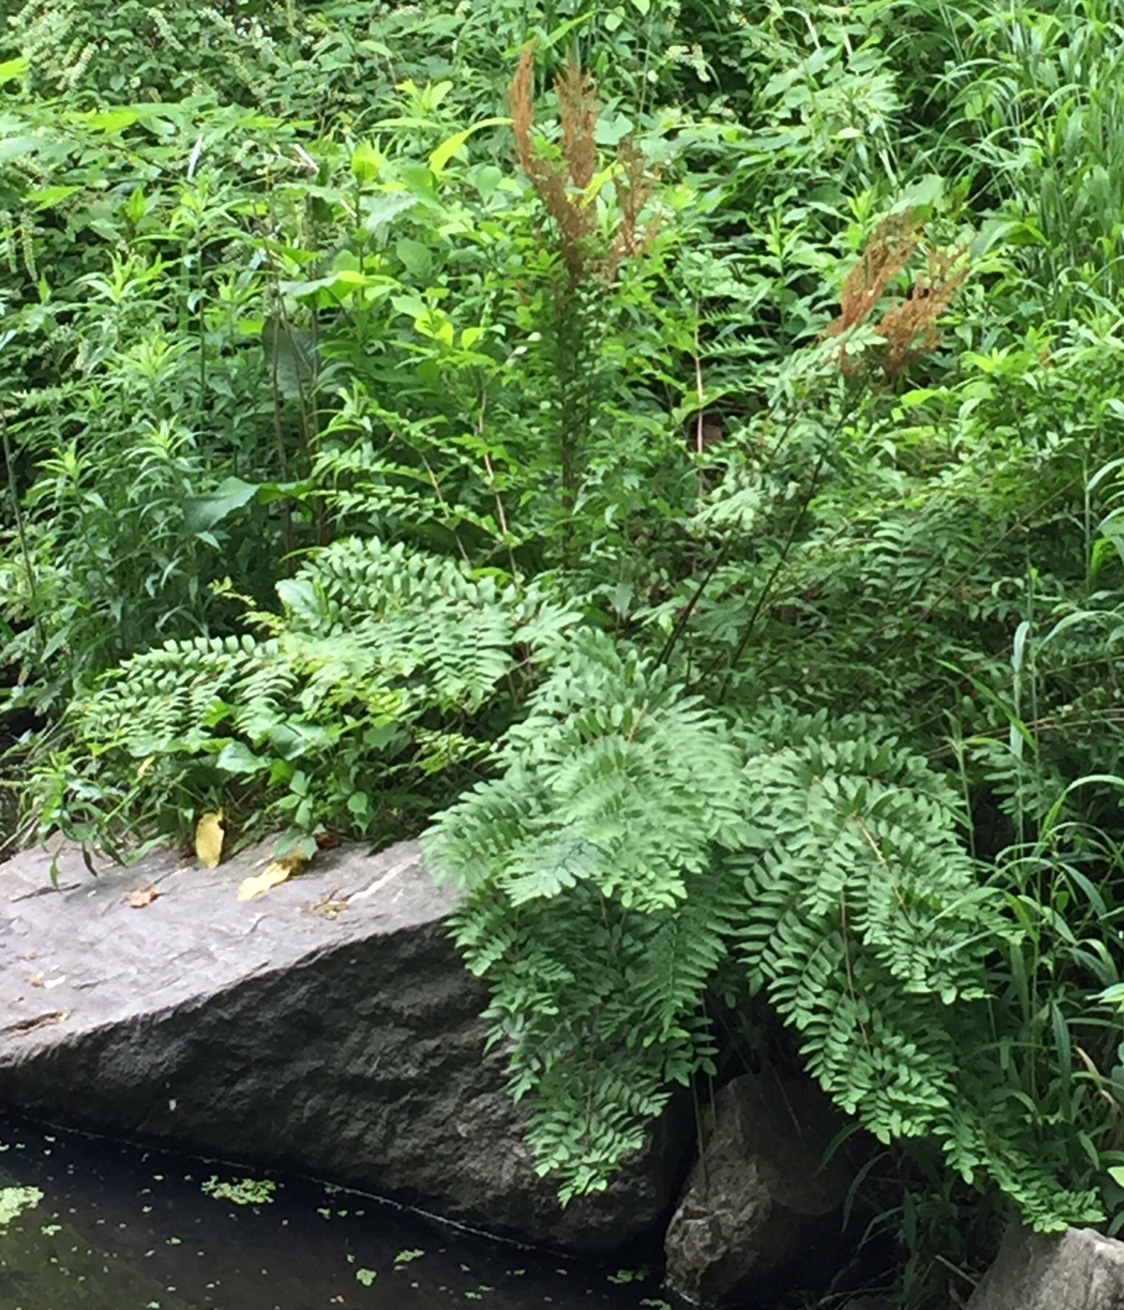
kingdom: Plantae
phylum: Tracheophyta
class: Polypodiopsida
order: Osmundales
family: Osmundaceae
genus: Osmunda
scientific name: Osmunda spectabilis
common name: American royal fern
